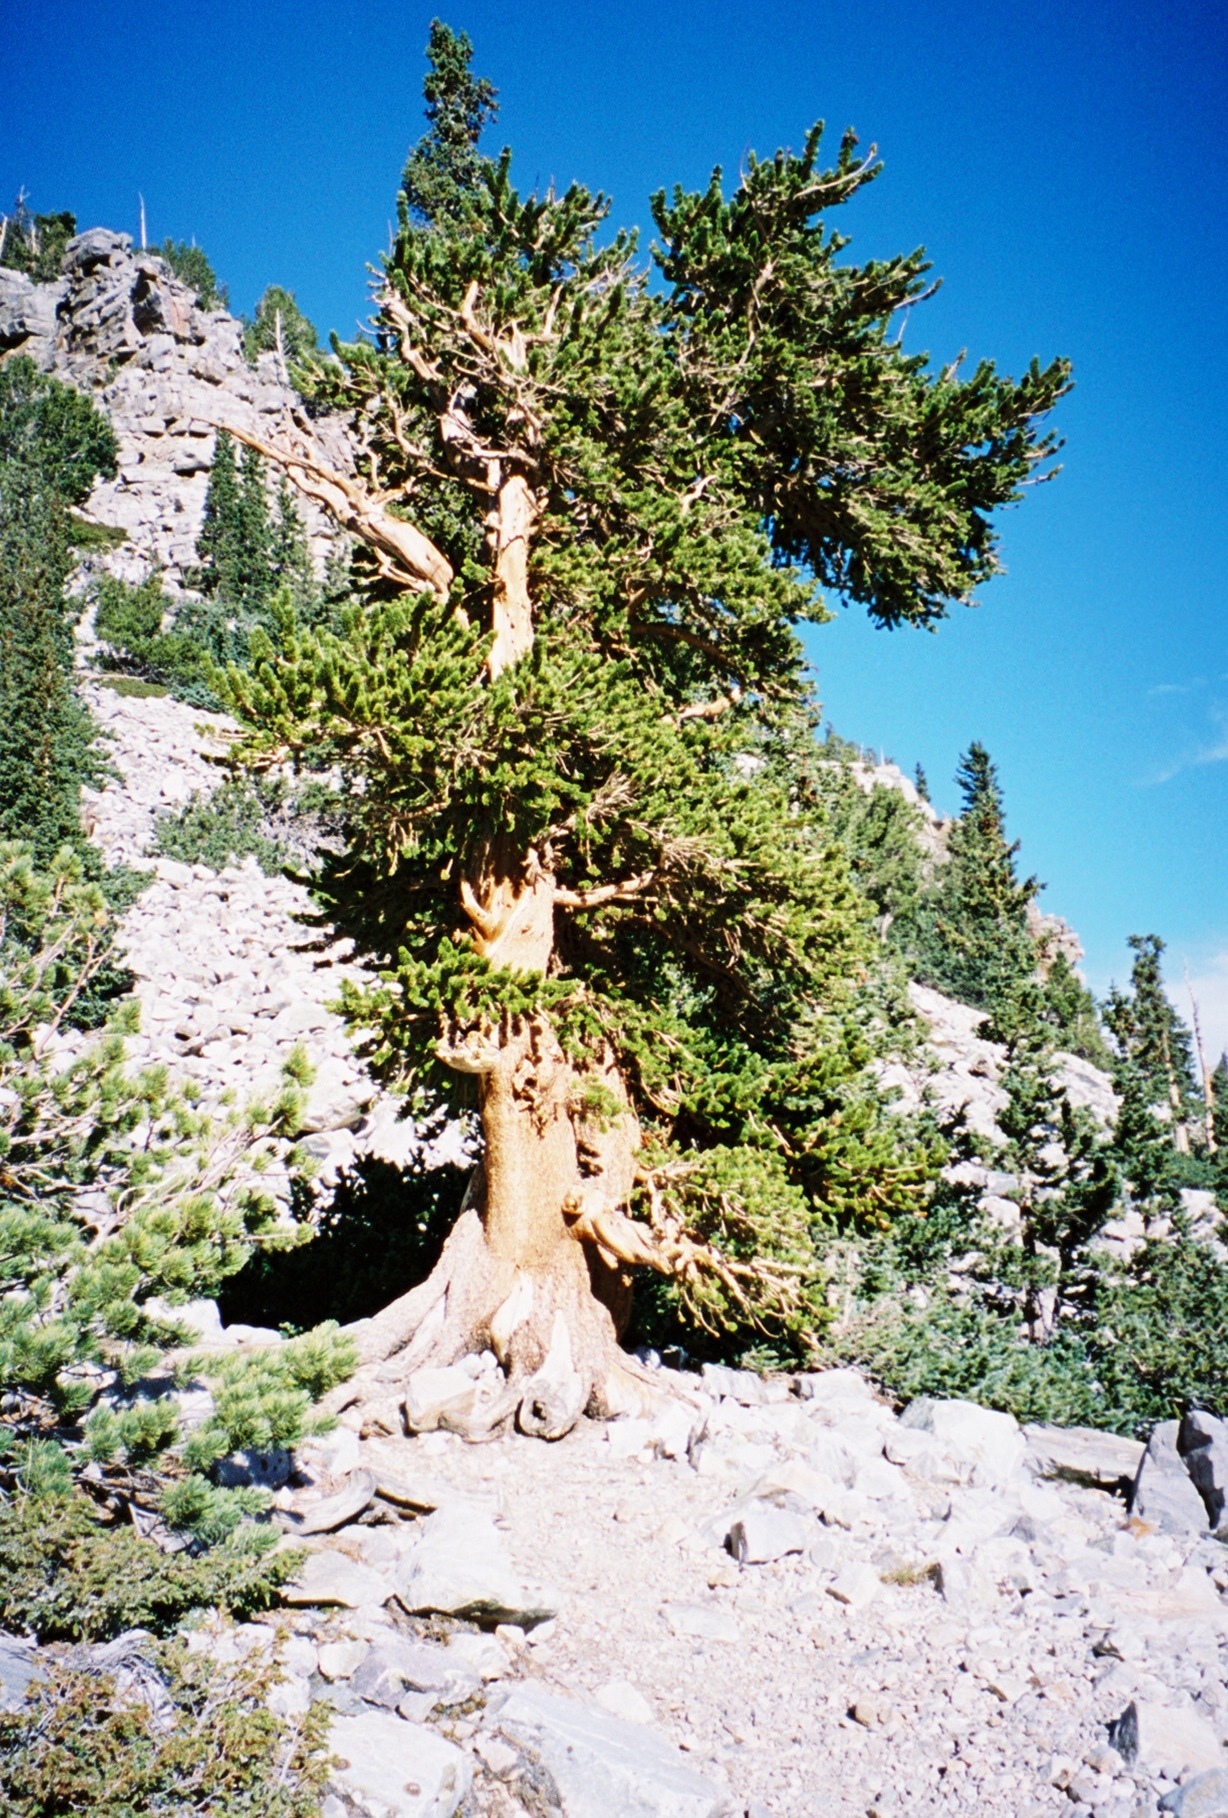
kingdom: Plantae
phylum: Tracheophyta
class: Pinopsida
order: Pinales
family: Pinaceae
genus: Pinus
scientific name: Pinus longaeva
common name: Intermountain bristlecone pine
